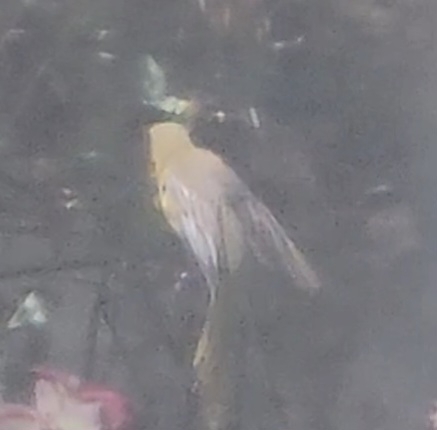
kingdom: Animalia
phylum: Chordata
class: Aves
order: Passeriformes
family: Icteridae
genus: Icterus
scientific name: Icterus cucullatus
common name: Hooded oriole
